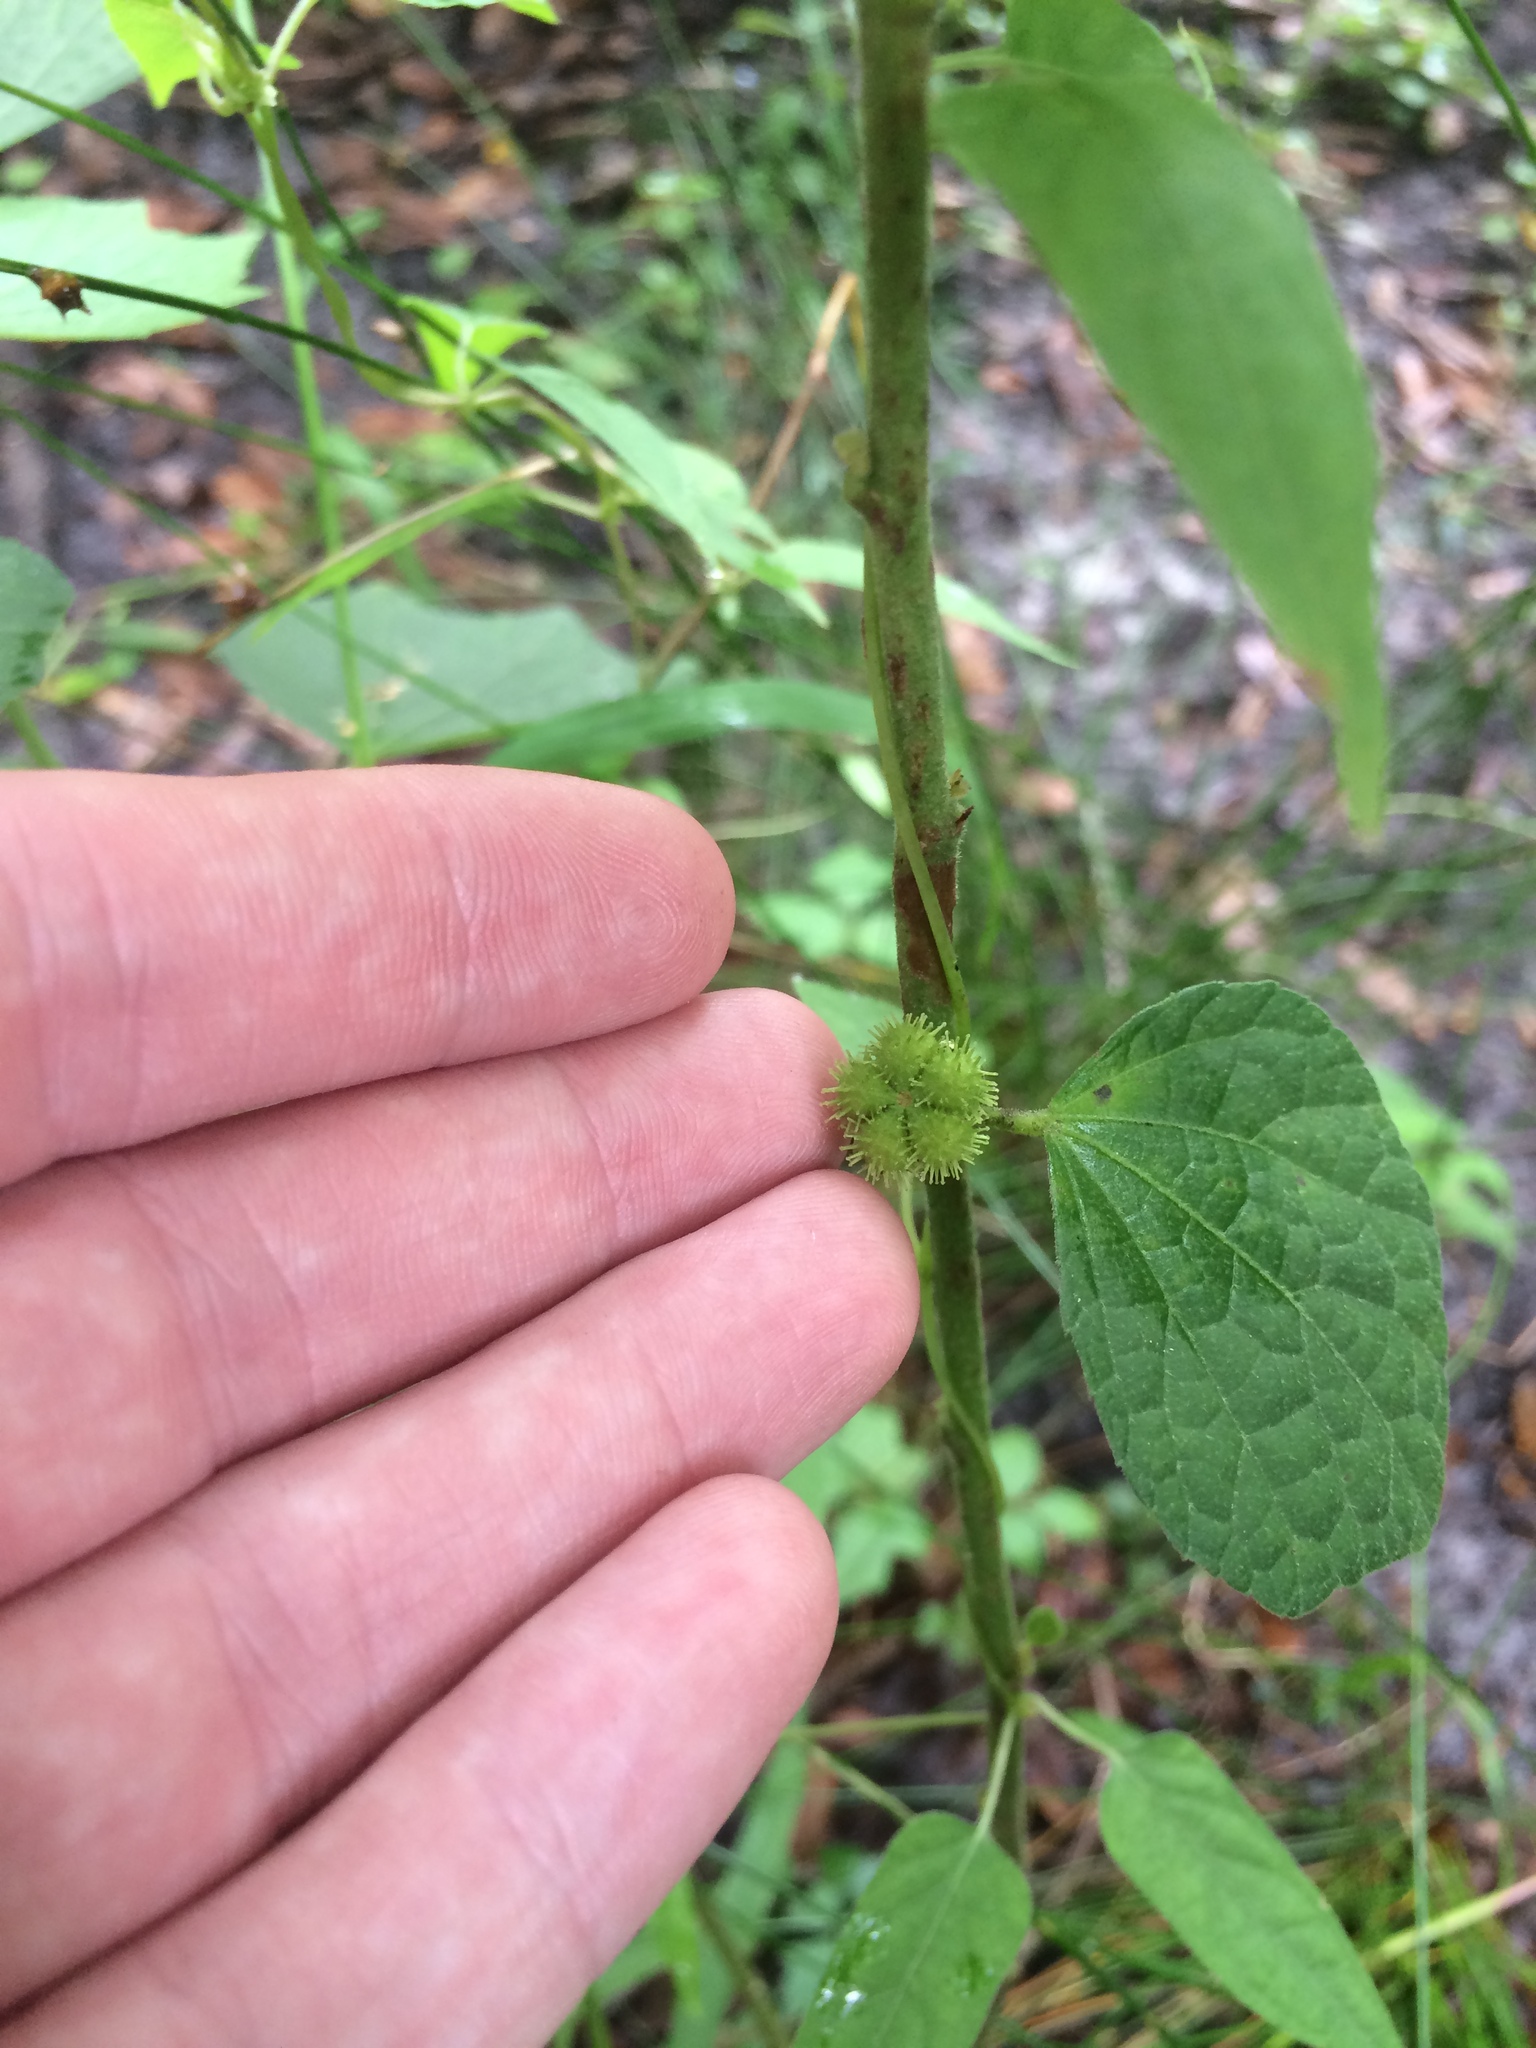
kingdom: Plantae
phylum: Tracheophyta
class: Magnoliopsida
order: Malvales
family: Malvaceae
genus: Urena
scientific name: Urena lobata
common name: Caesarweed
